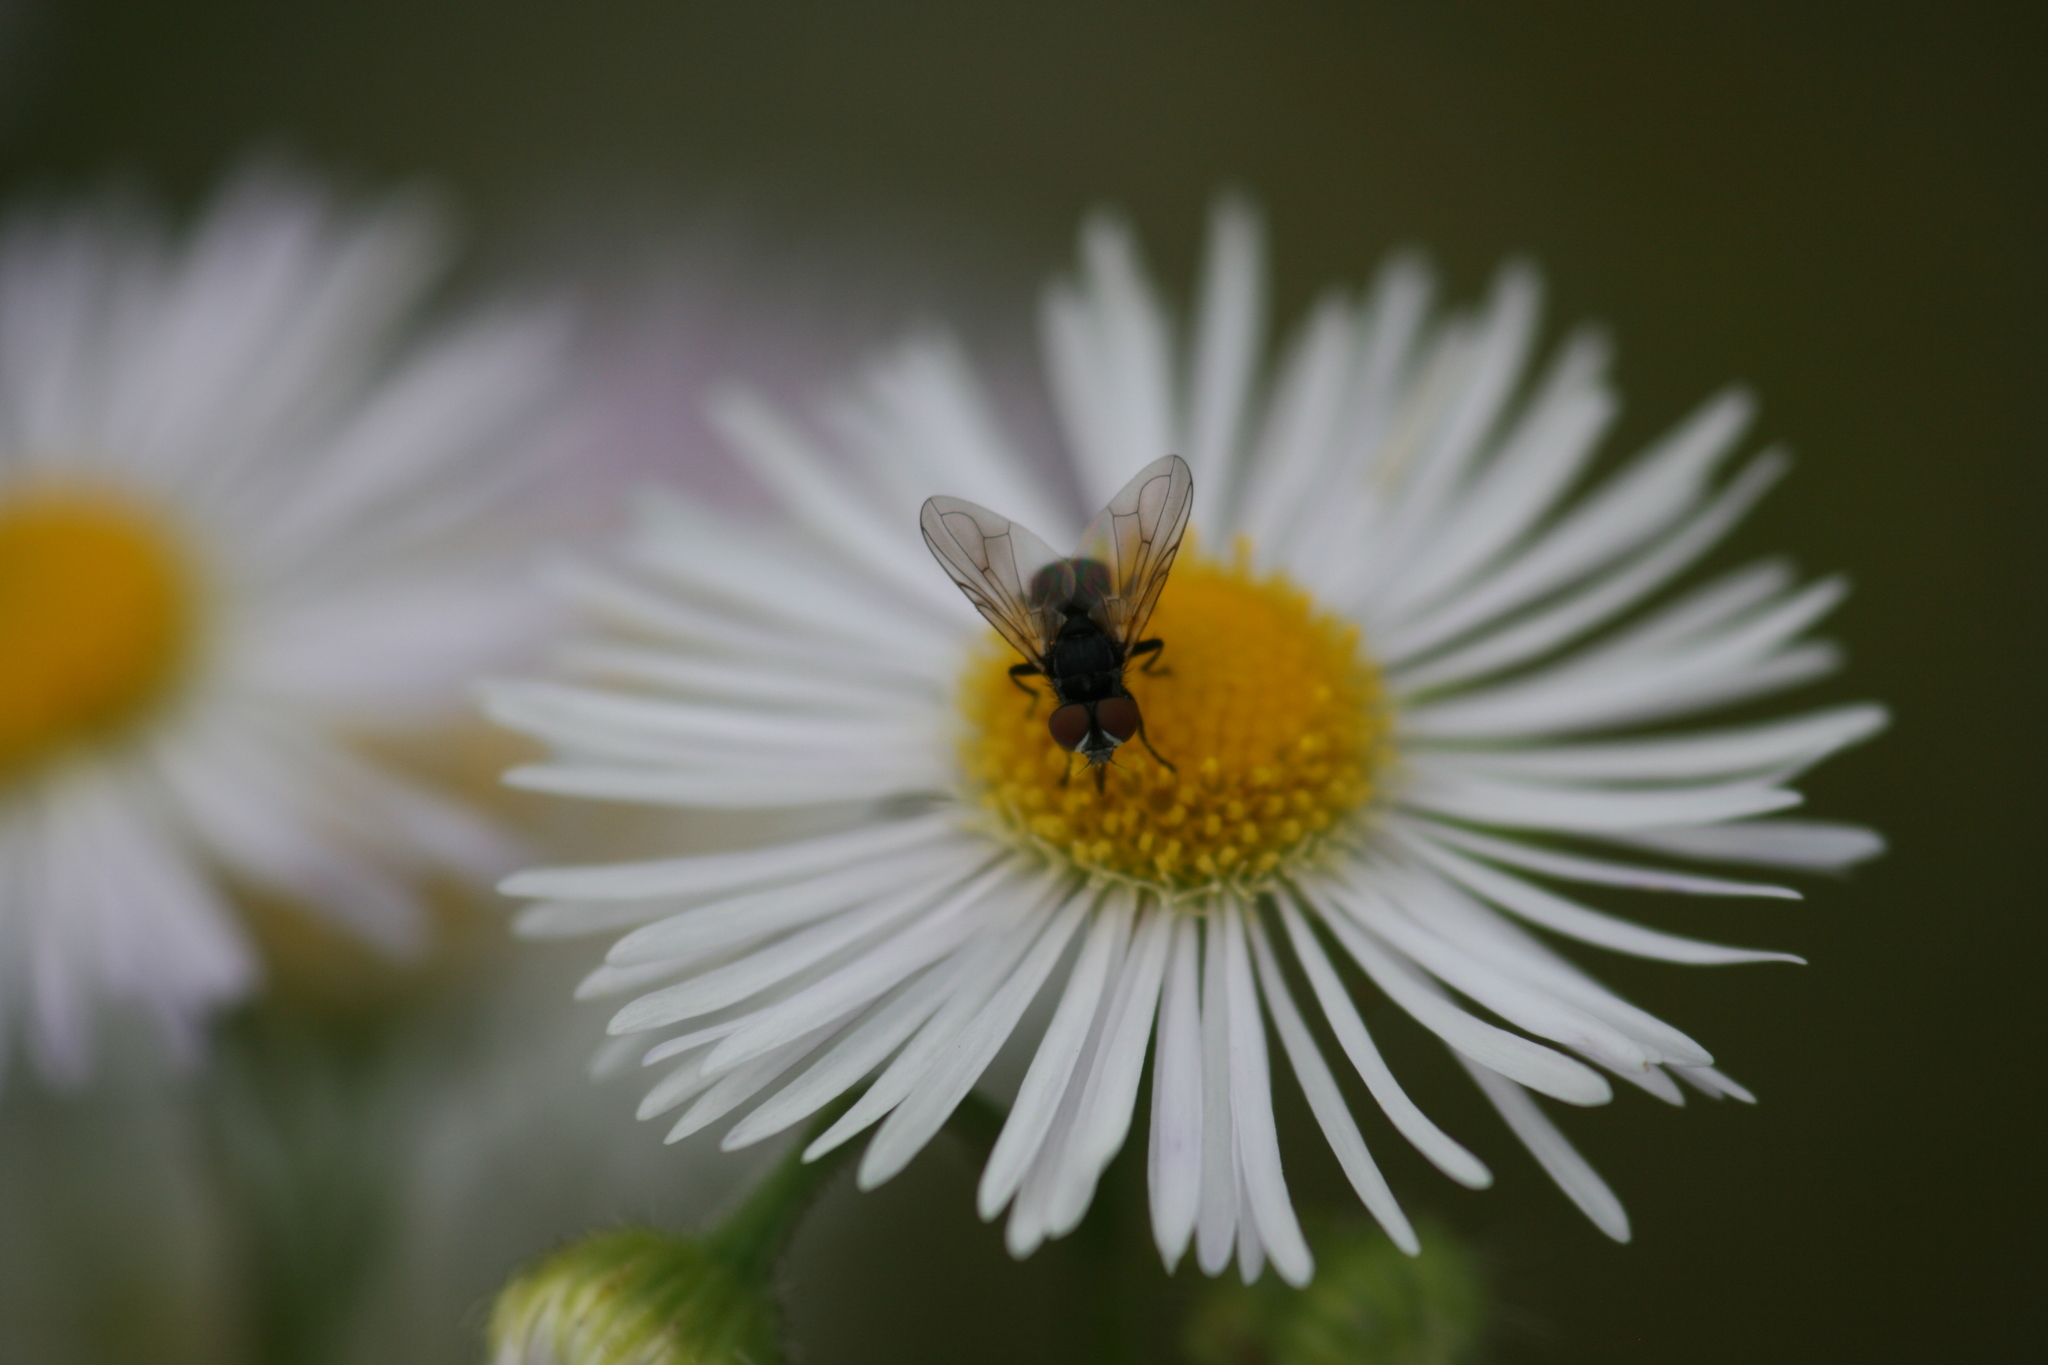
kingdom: Animalia
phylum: Arthropoda
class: Insecta
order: Diptera
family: Tachinidae
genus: Phasia
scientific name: Phasia obesa
